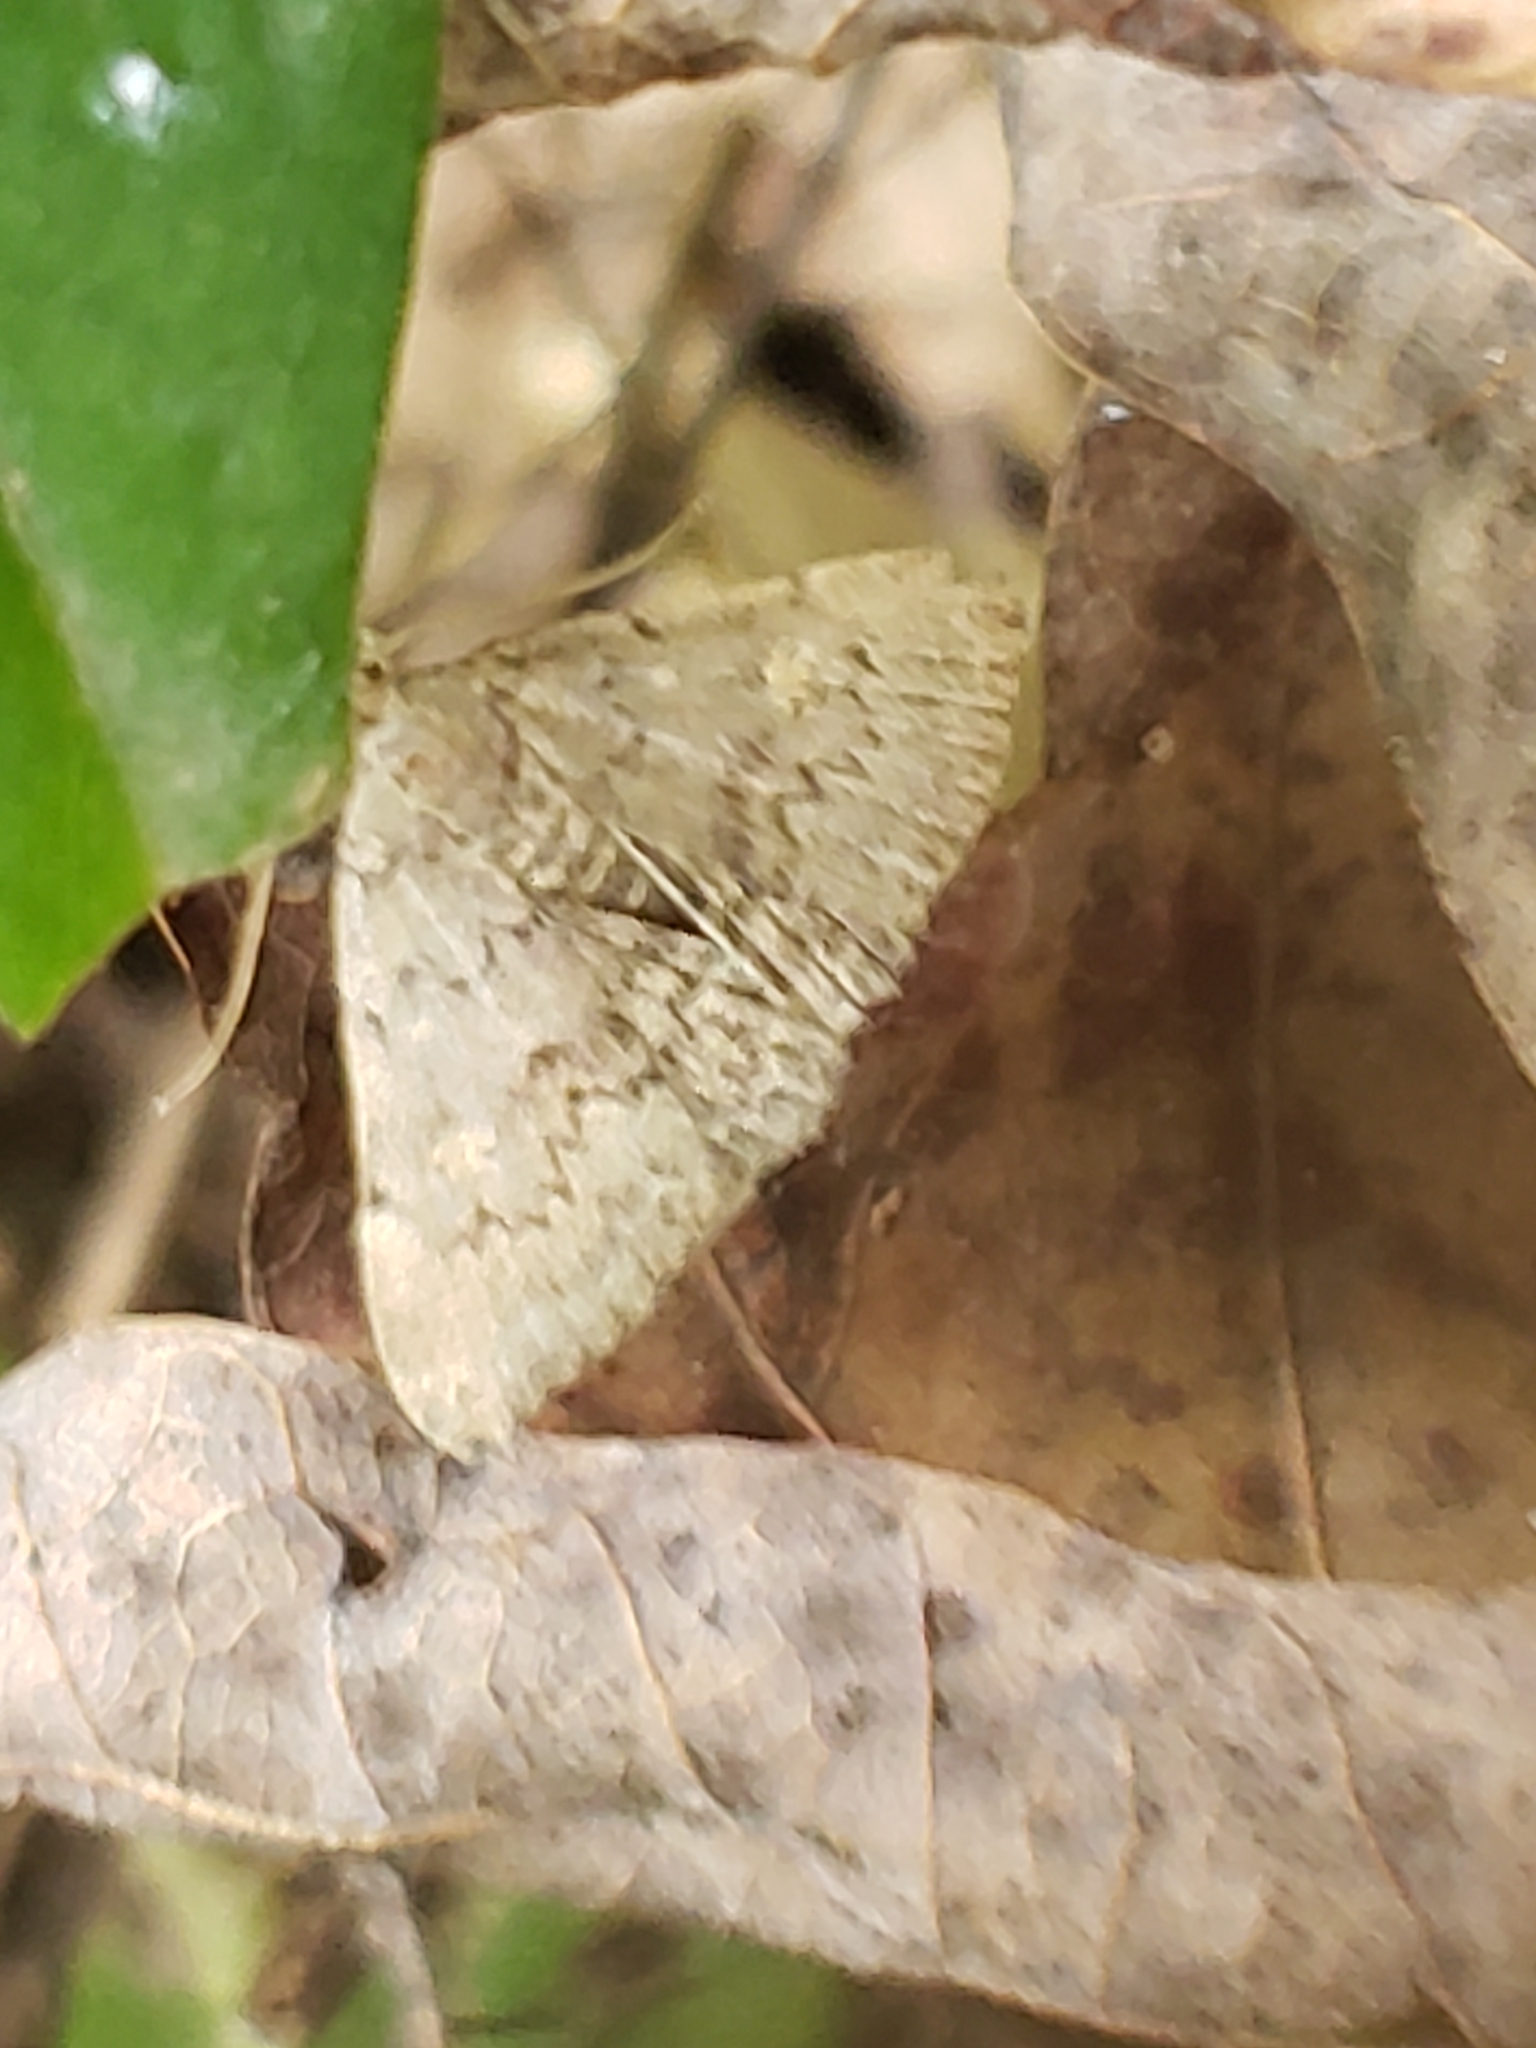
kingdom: Animalia
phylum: Arthropoda
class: Insecta
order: Lepidoptera
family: Erebidae
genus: Idia
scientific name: Idia aemula
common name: Common idia moth
